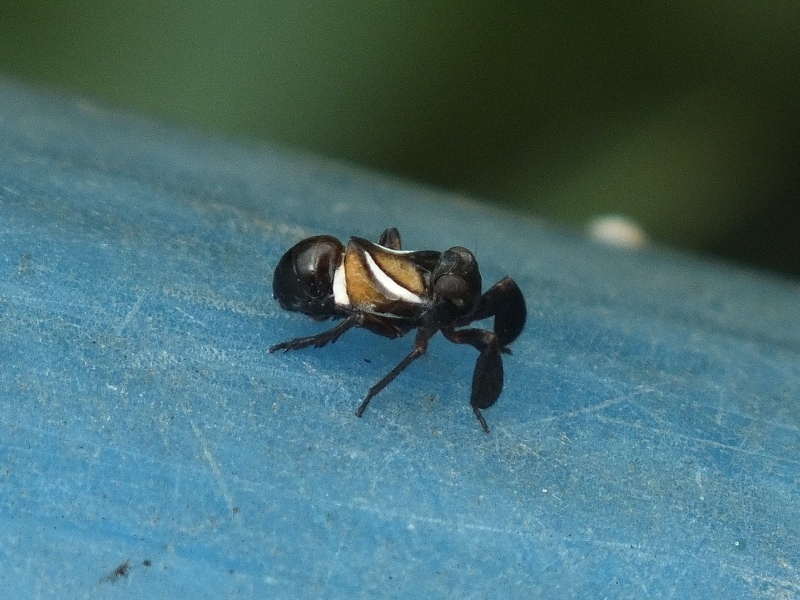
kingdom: Animalia
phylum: Arthropoda
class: Insecta
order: Hemiptera
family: Caliscelidae
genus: Caliscelis
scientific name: Caliscelis affinis
